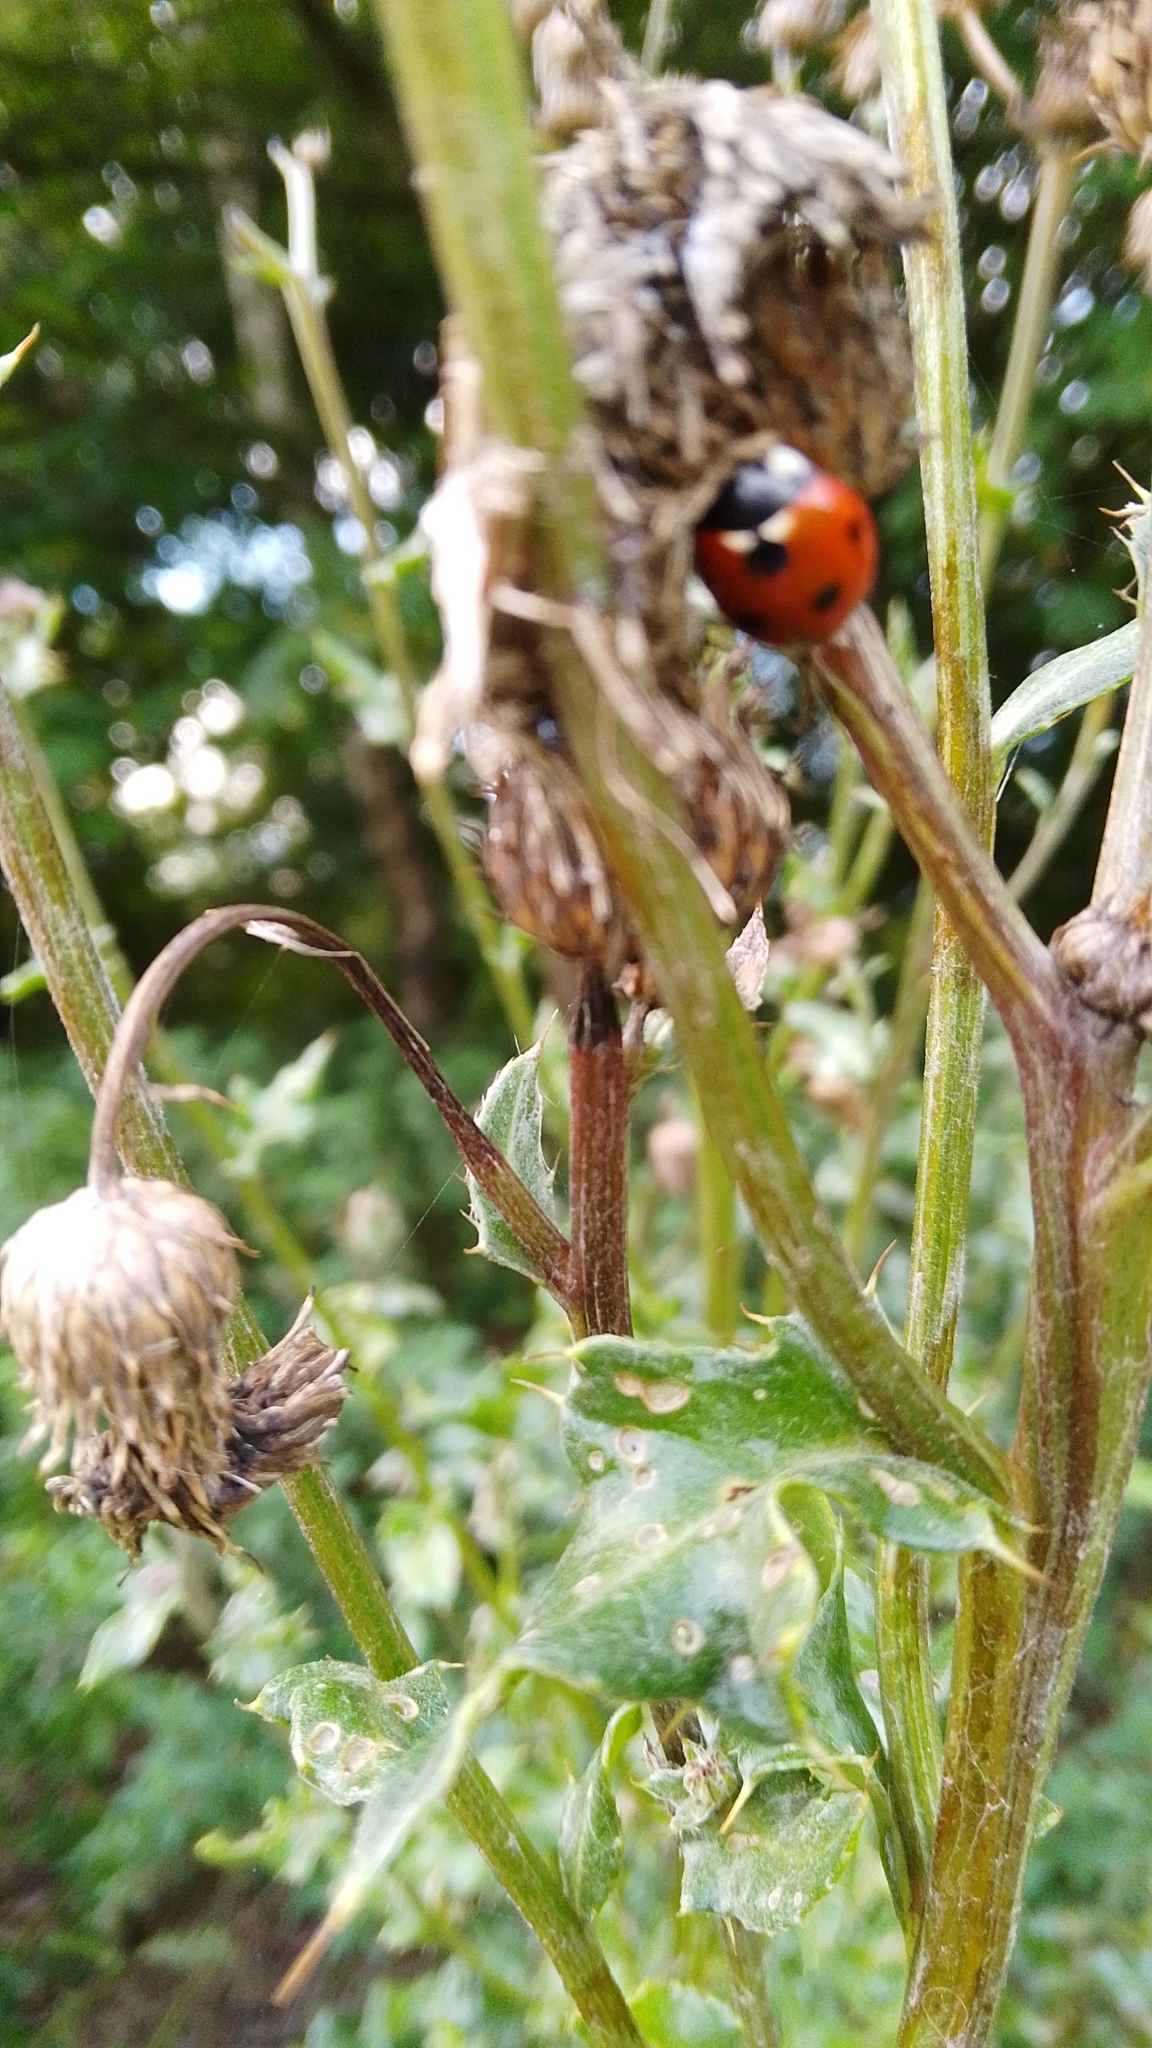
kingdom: Animalia
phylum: Arthropoda
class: Insecta
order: Coleoptera
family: Coccinellidae
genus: Coccinella
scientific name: Coccinella septempunctata
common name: Sevenspotted lady beetle
